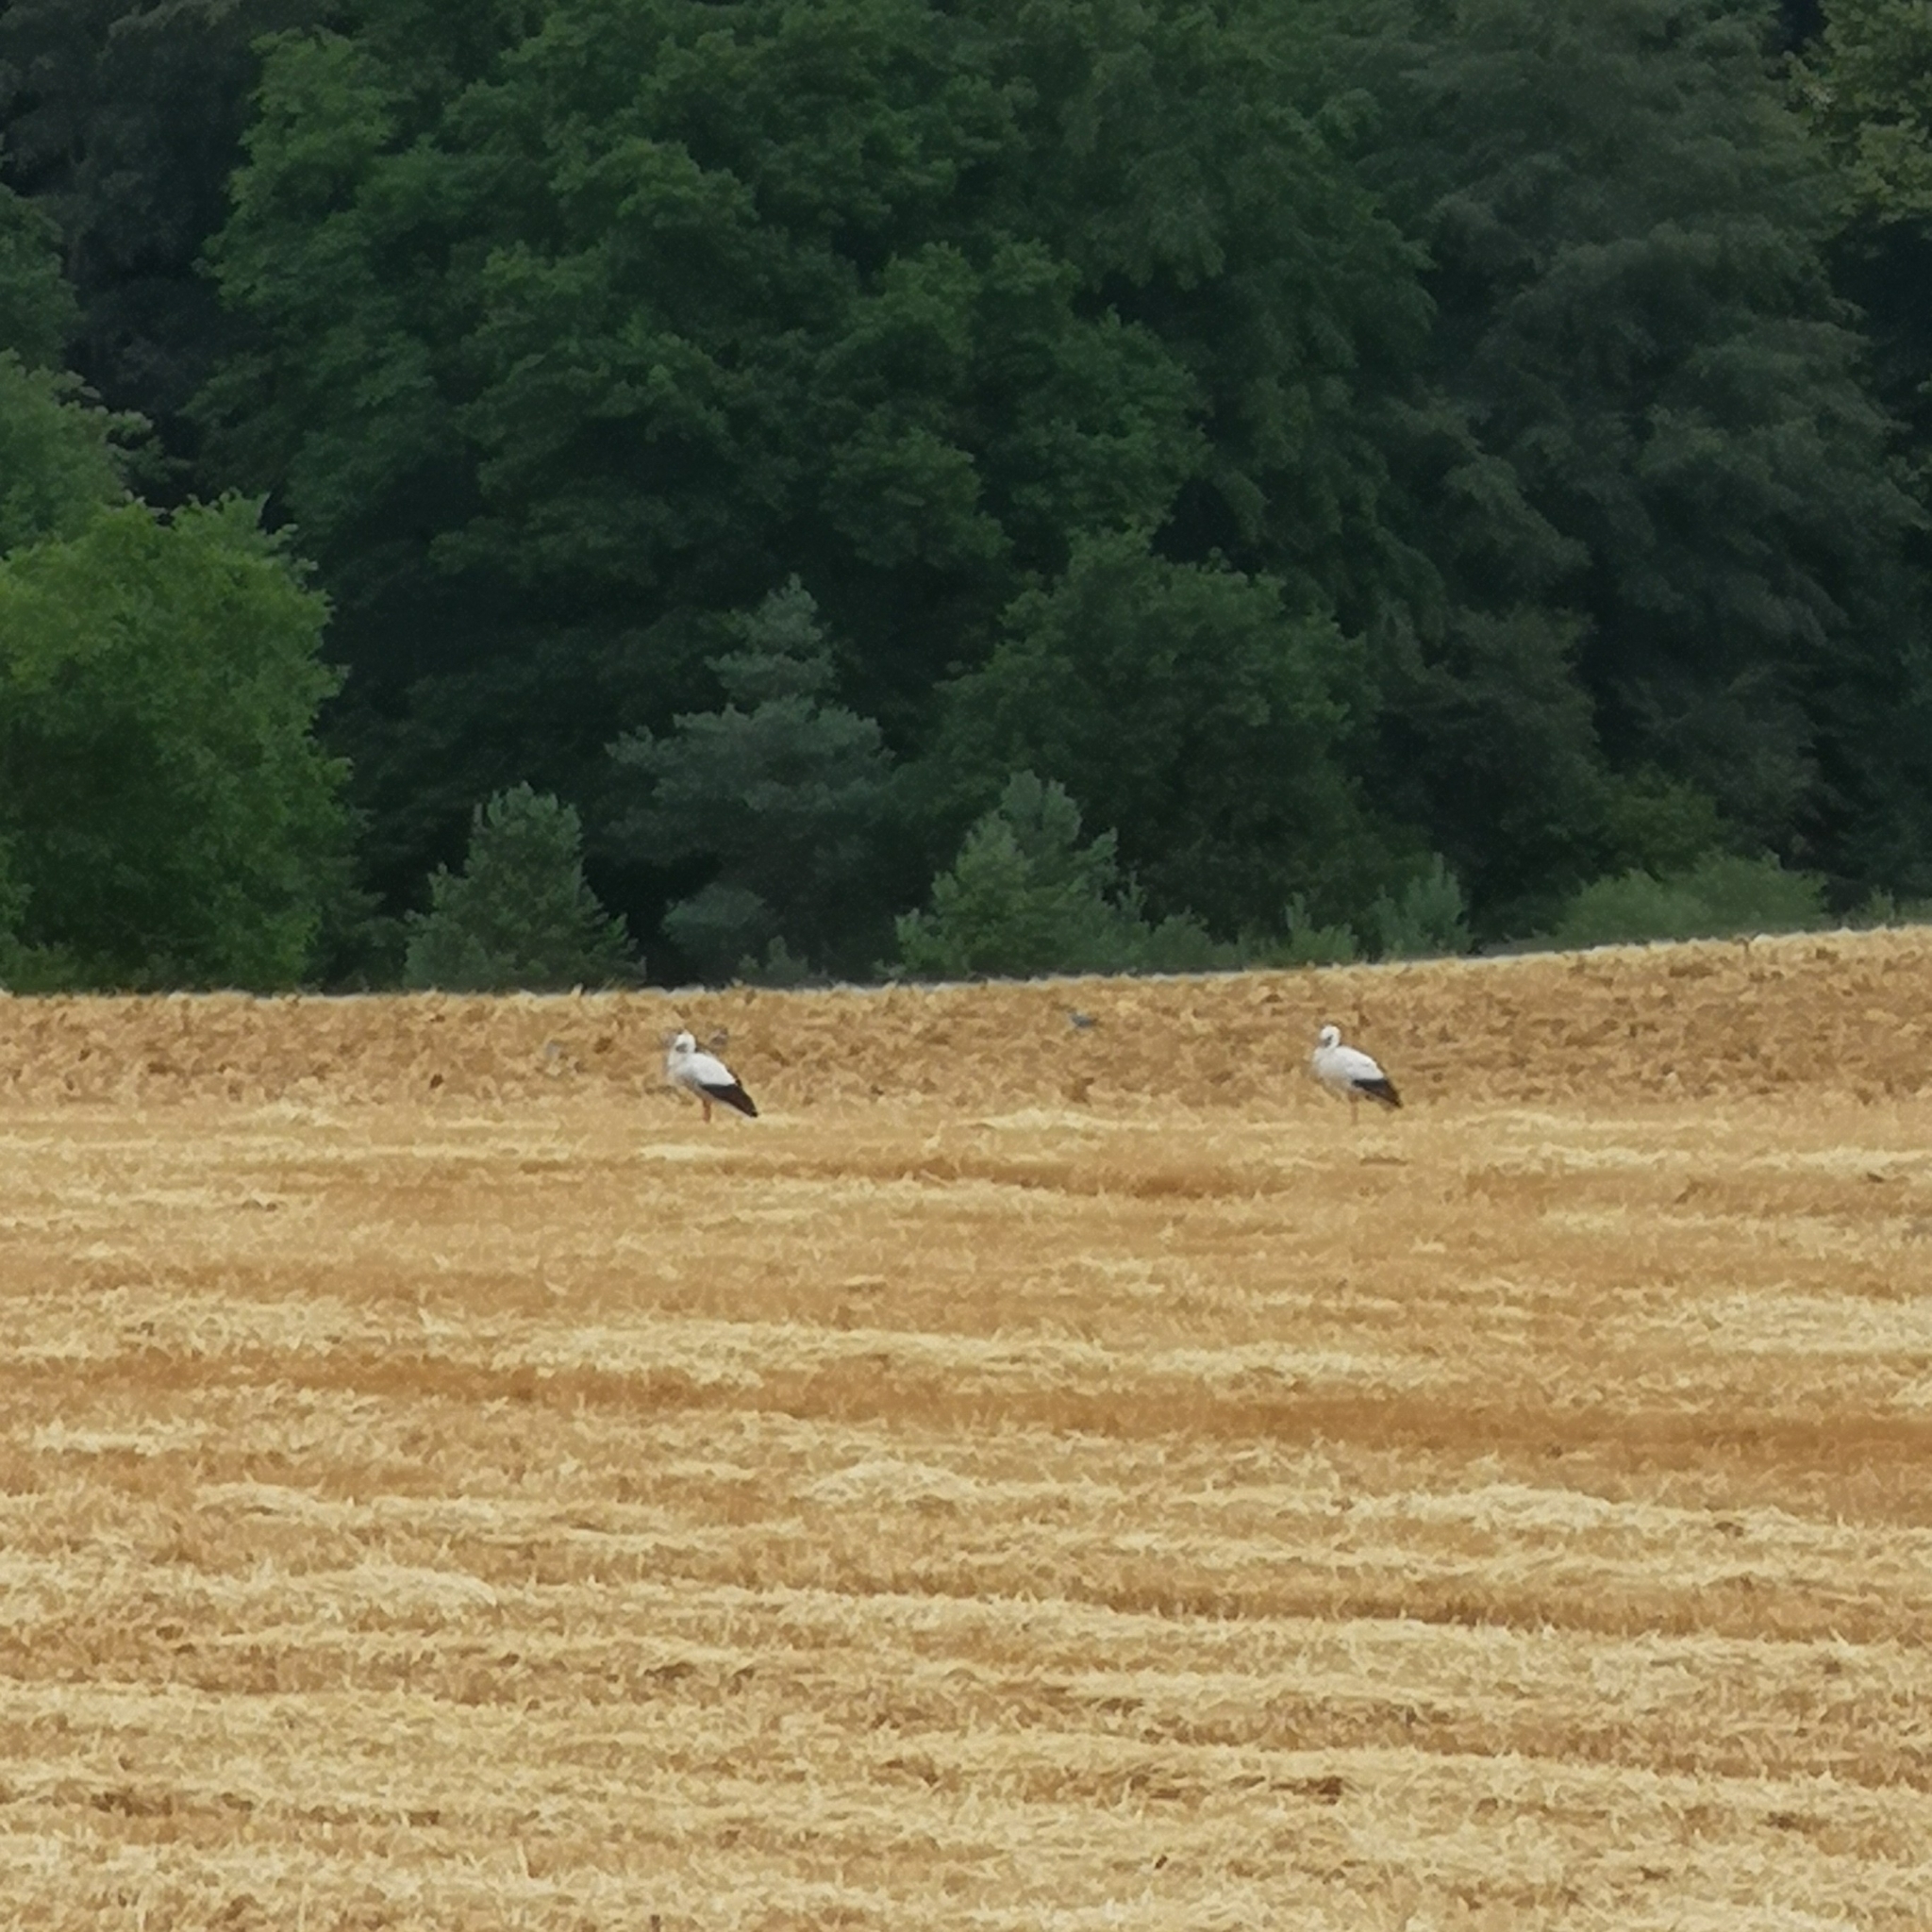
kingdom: Animalia
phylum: Chordata
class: Aves
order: Ciconiiformes
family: Ciconiidae
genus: Ciconia
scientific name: Ciconia ciconia
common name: White stork
